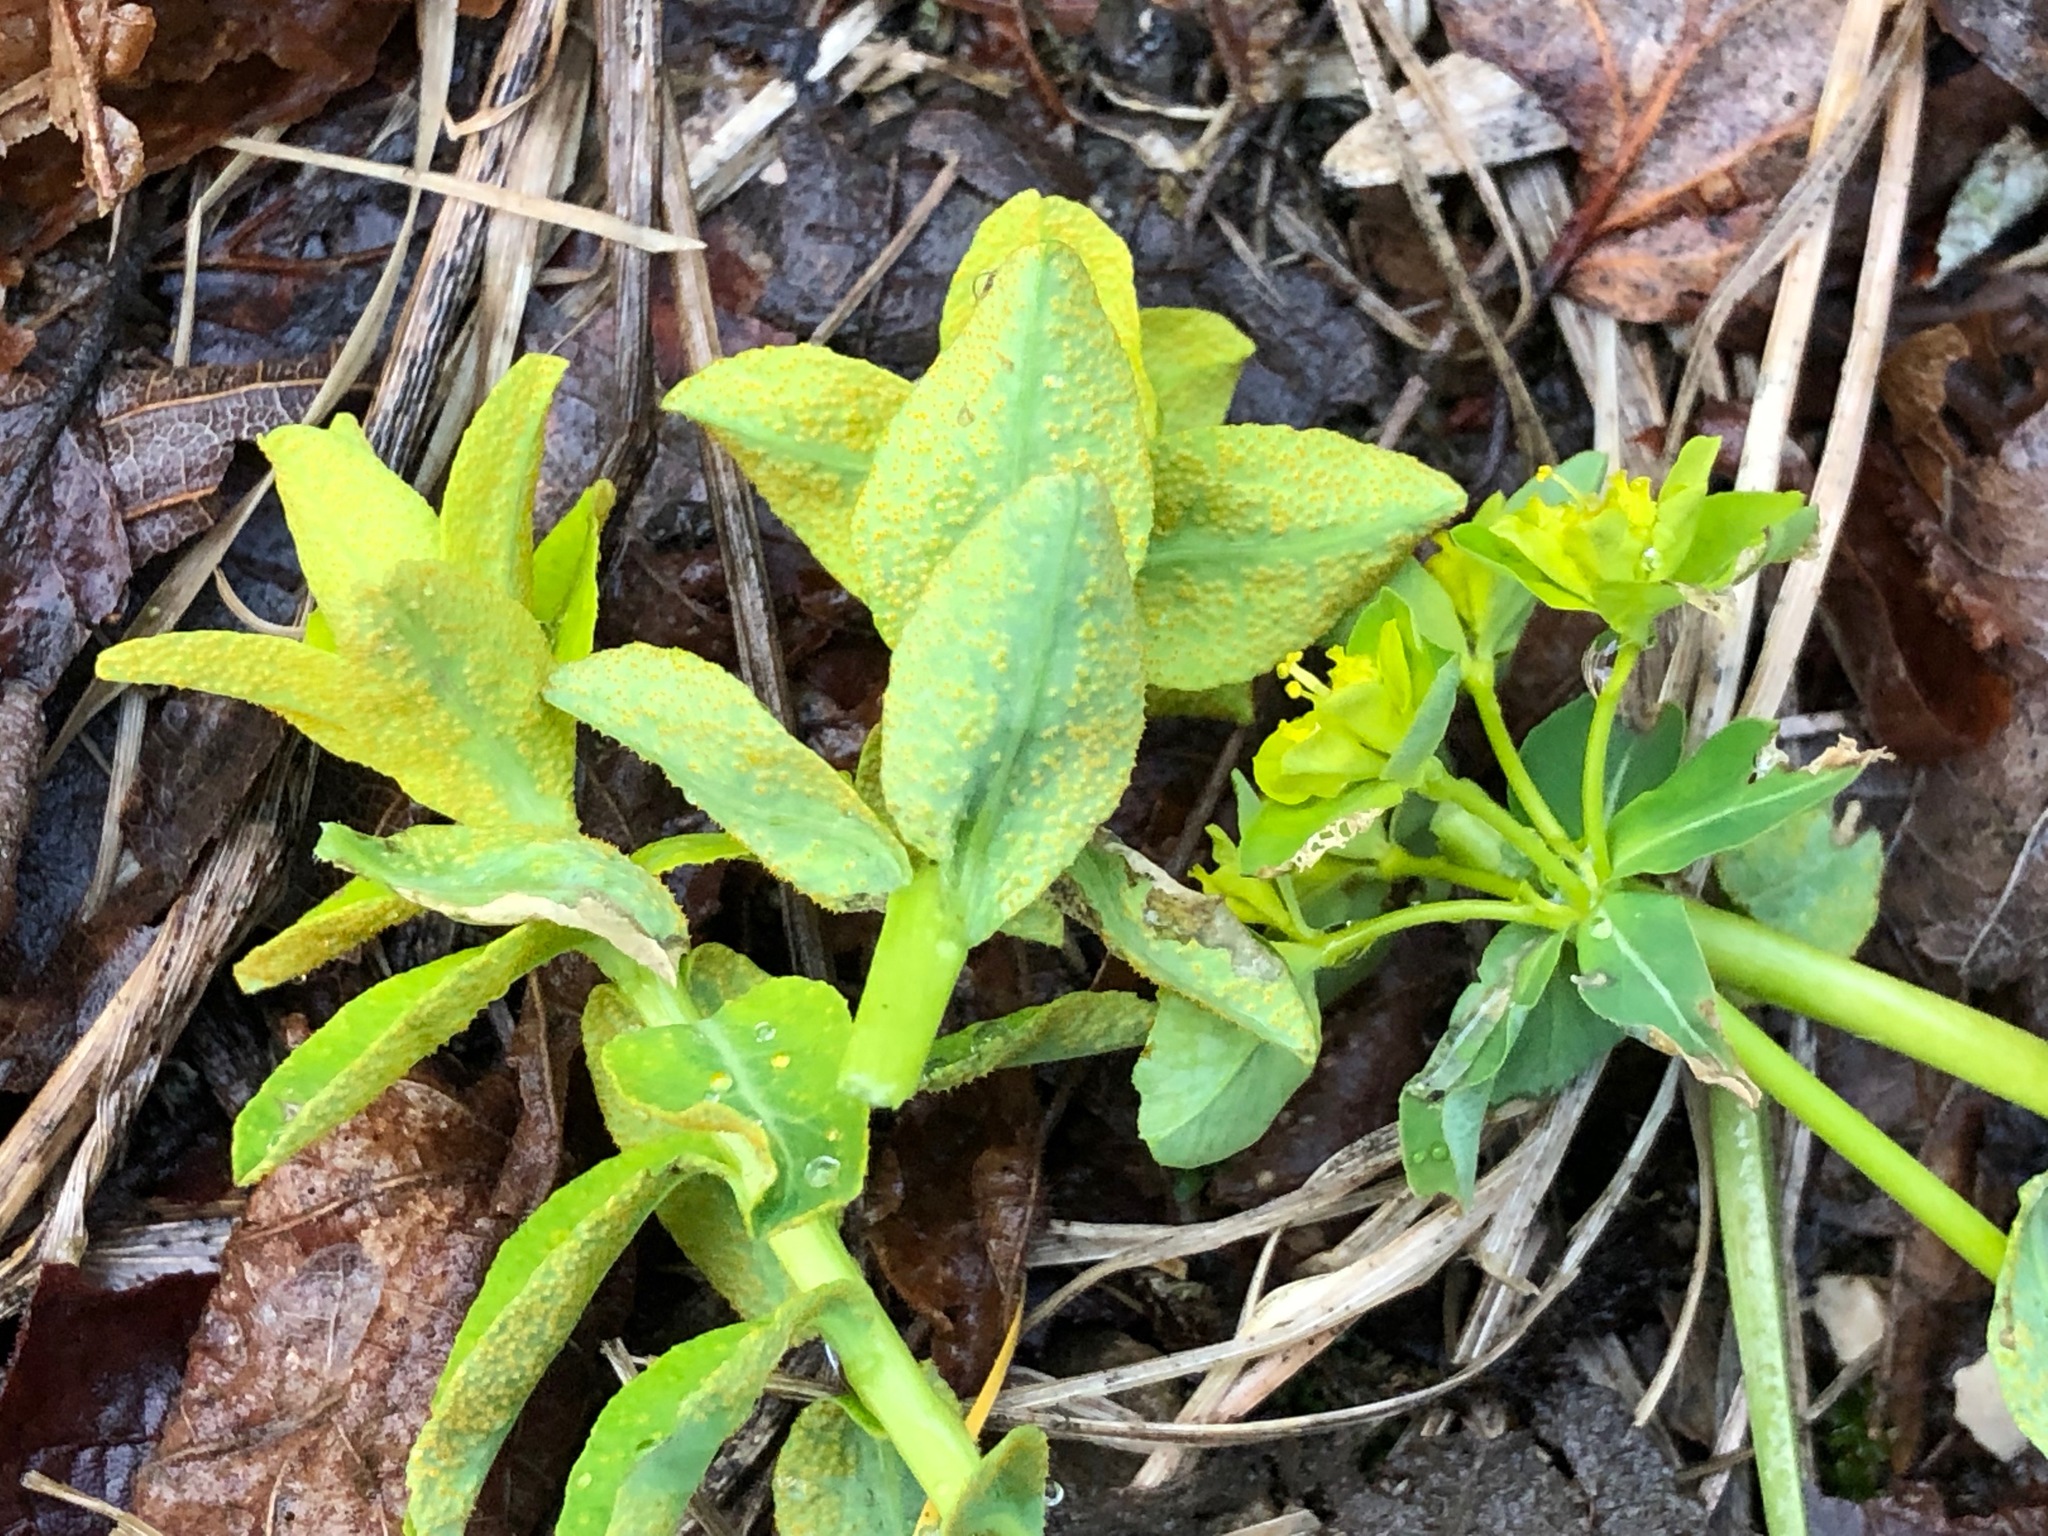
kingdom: Fungi
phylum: Basidiomycota
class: Pucciniomycetes
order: Pucciniales
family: Pucciniaceae
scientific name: Pucciniaceae
